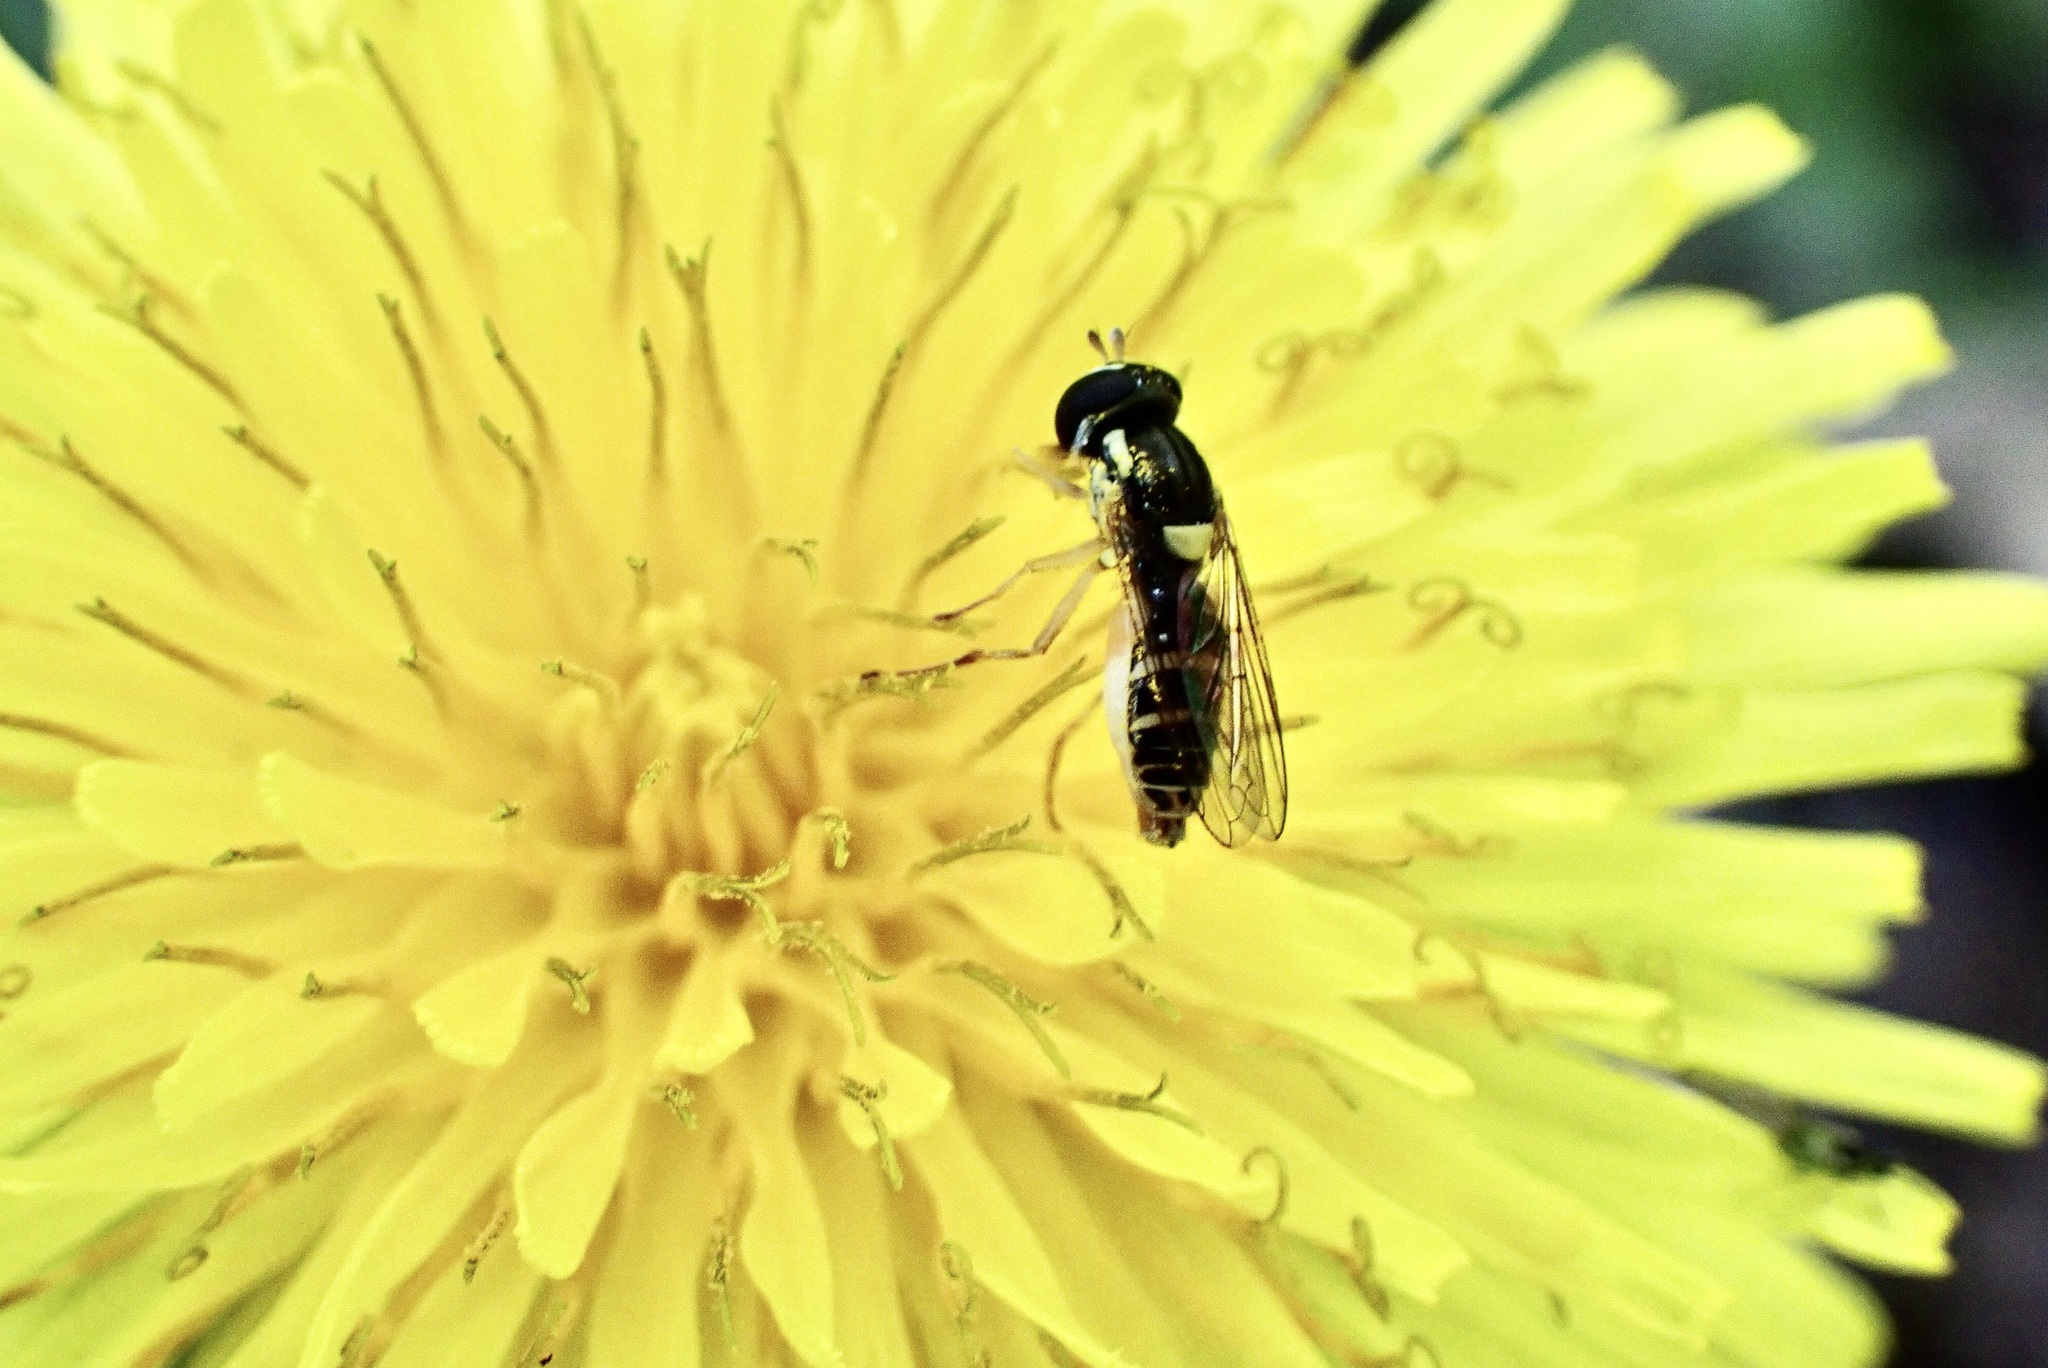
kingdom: Animalia
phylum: Arthropoda
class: Insecta
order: Diptera
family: Syrphidae
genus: Sphaerophoria
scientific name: Sphaerophoria sulphuripes
